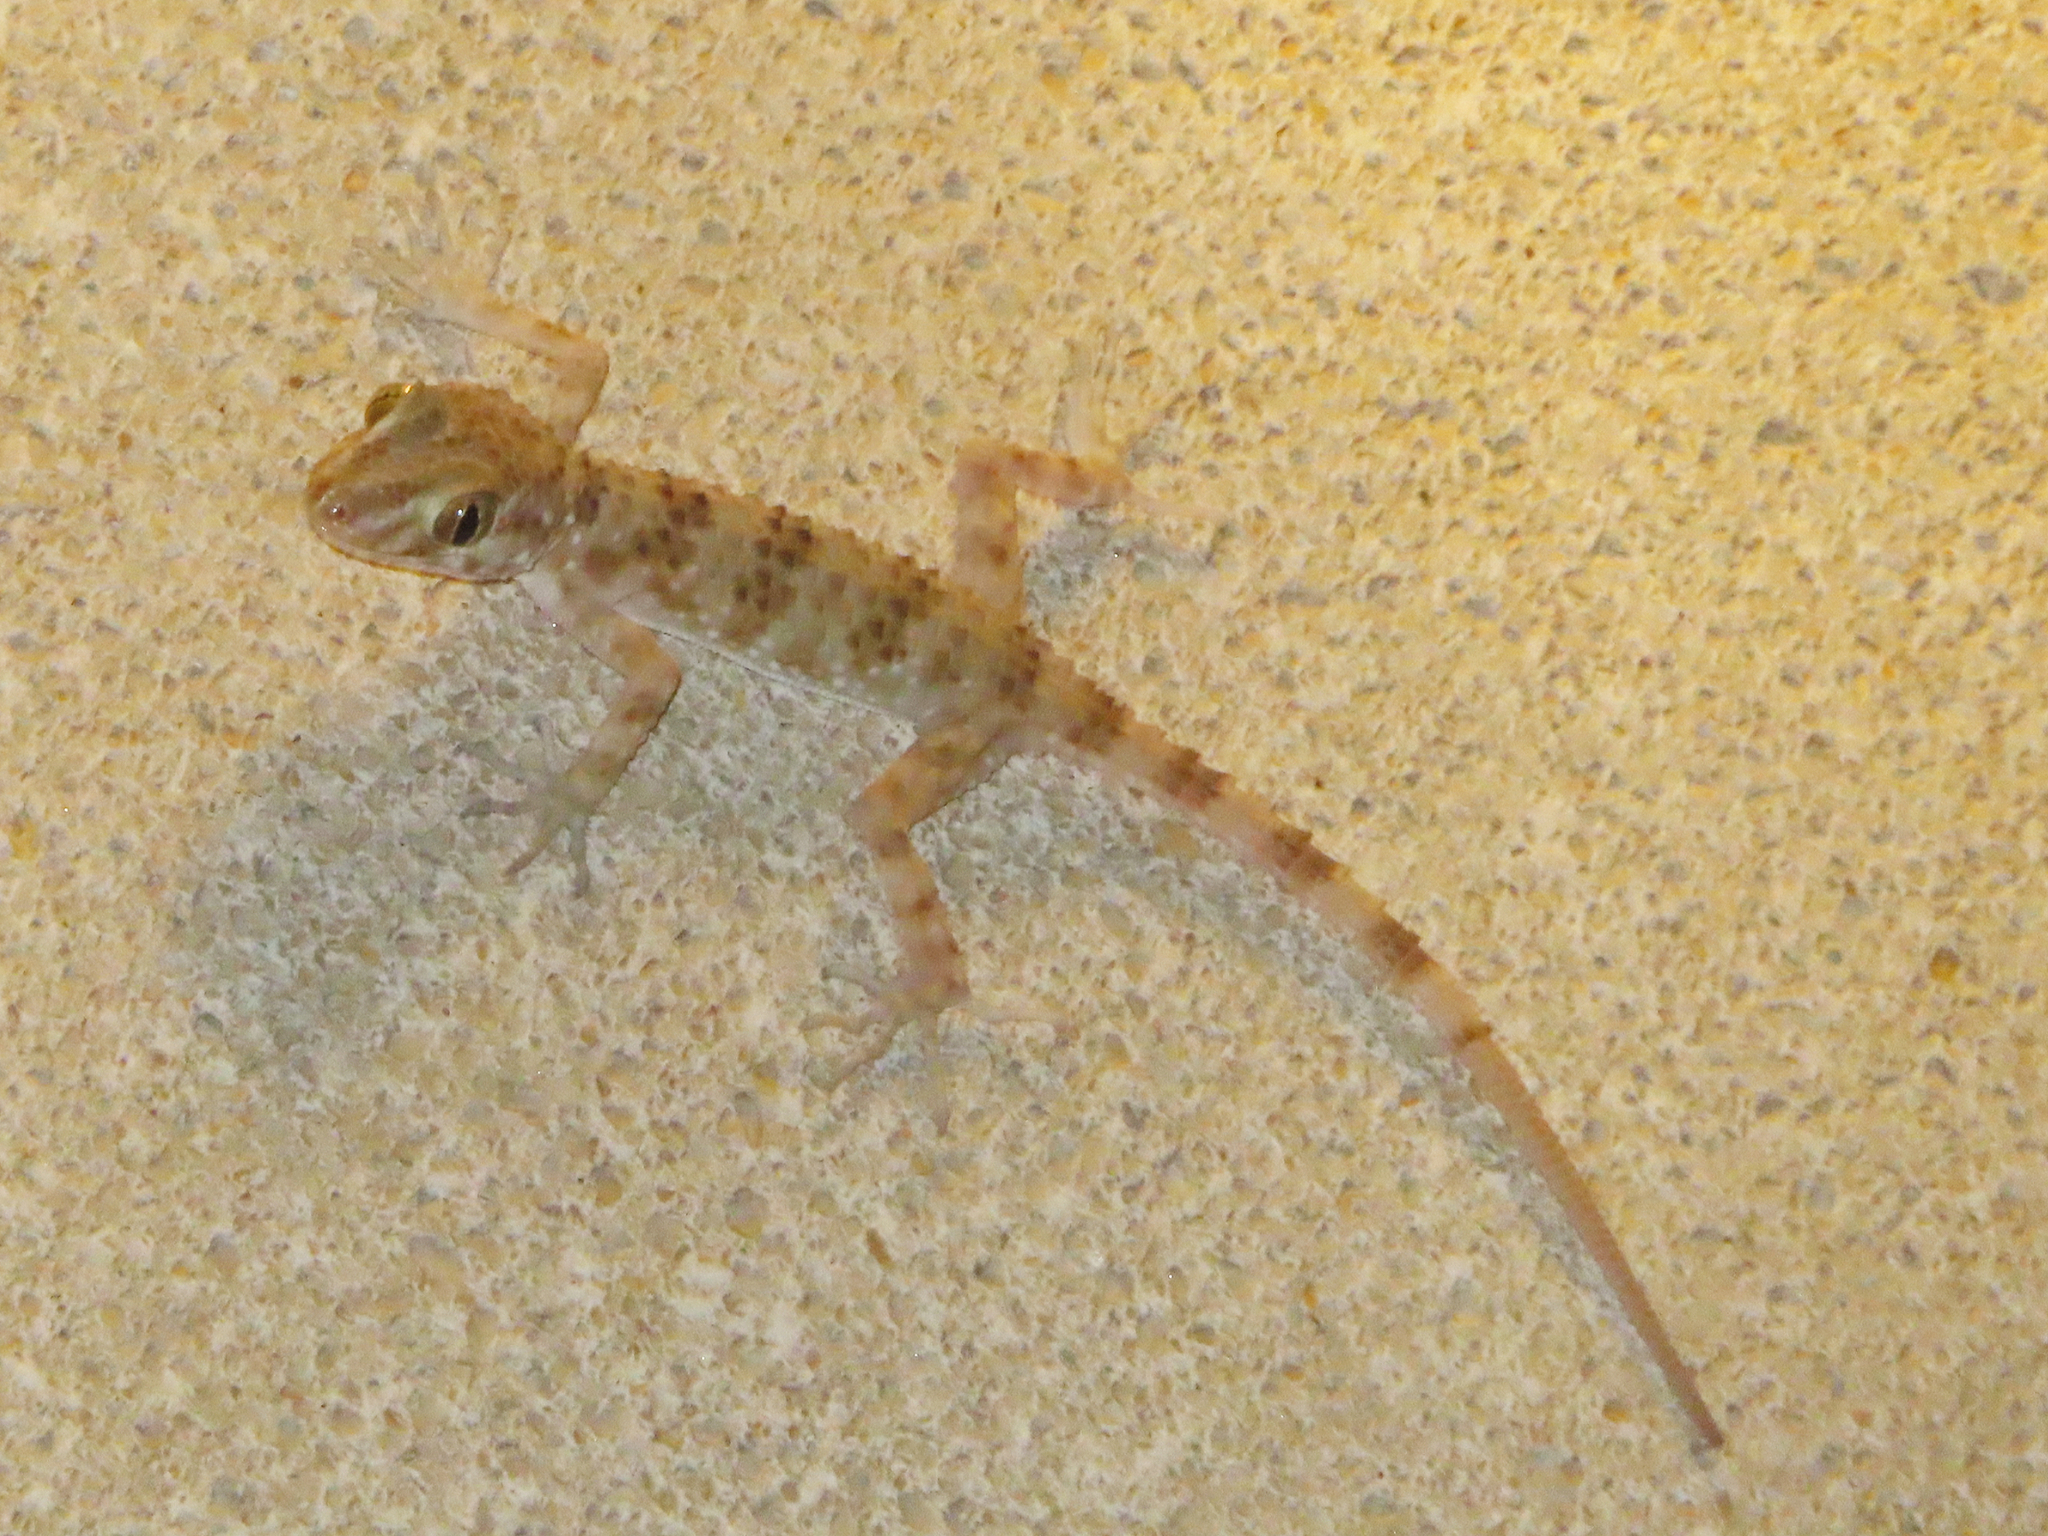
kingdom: Animalia
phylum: Chordata
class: Squamata
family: Gekkonidae
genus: Tenuidactylus
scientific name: Tenuidactylus caspius
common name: Caspian bent-toed gecko
